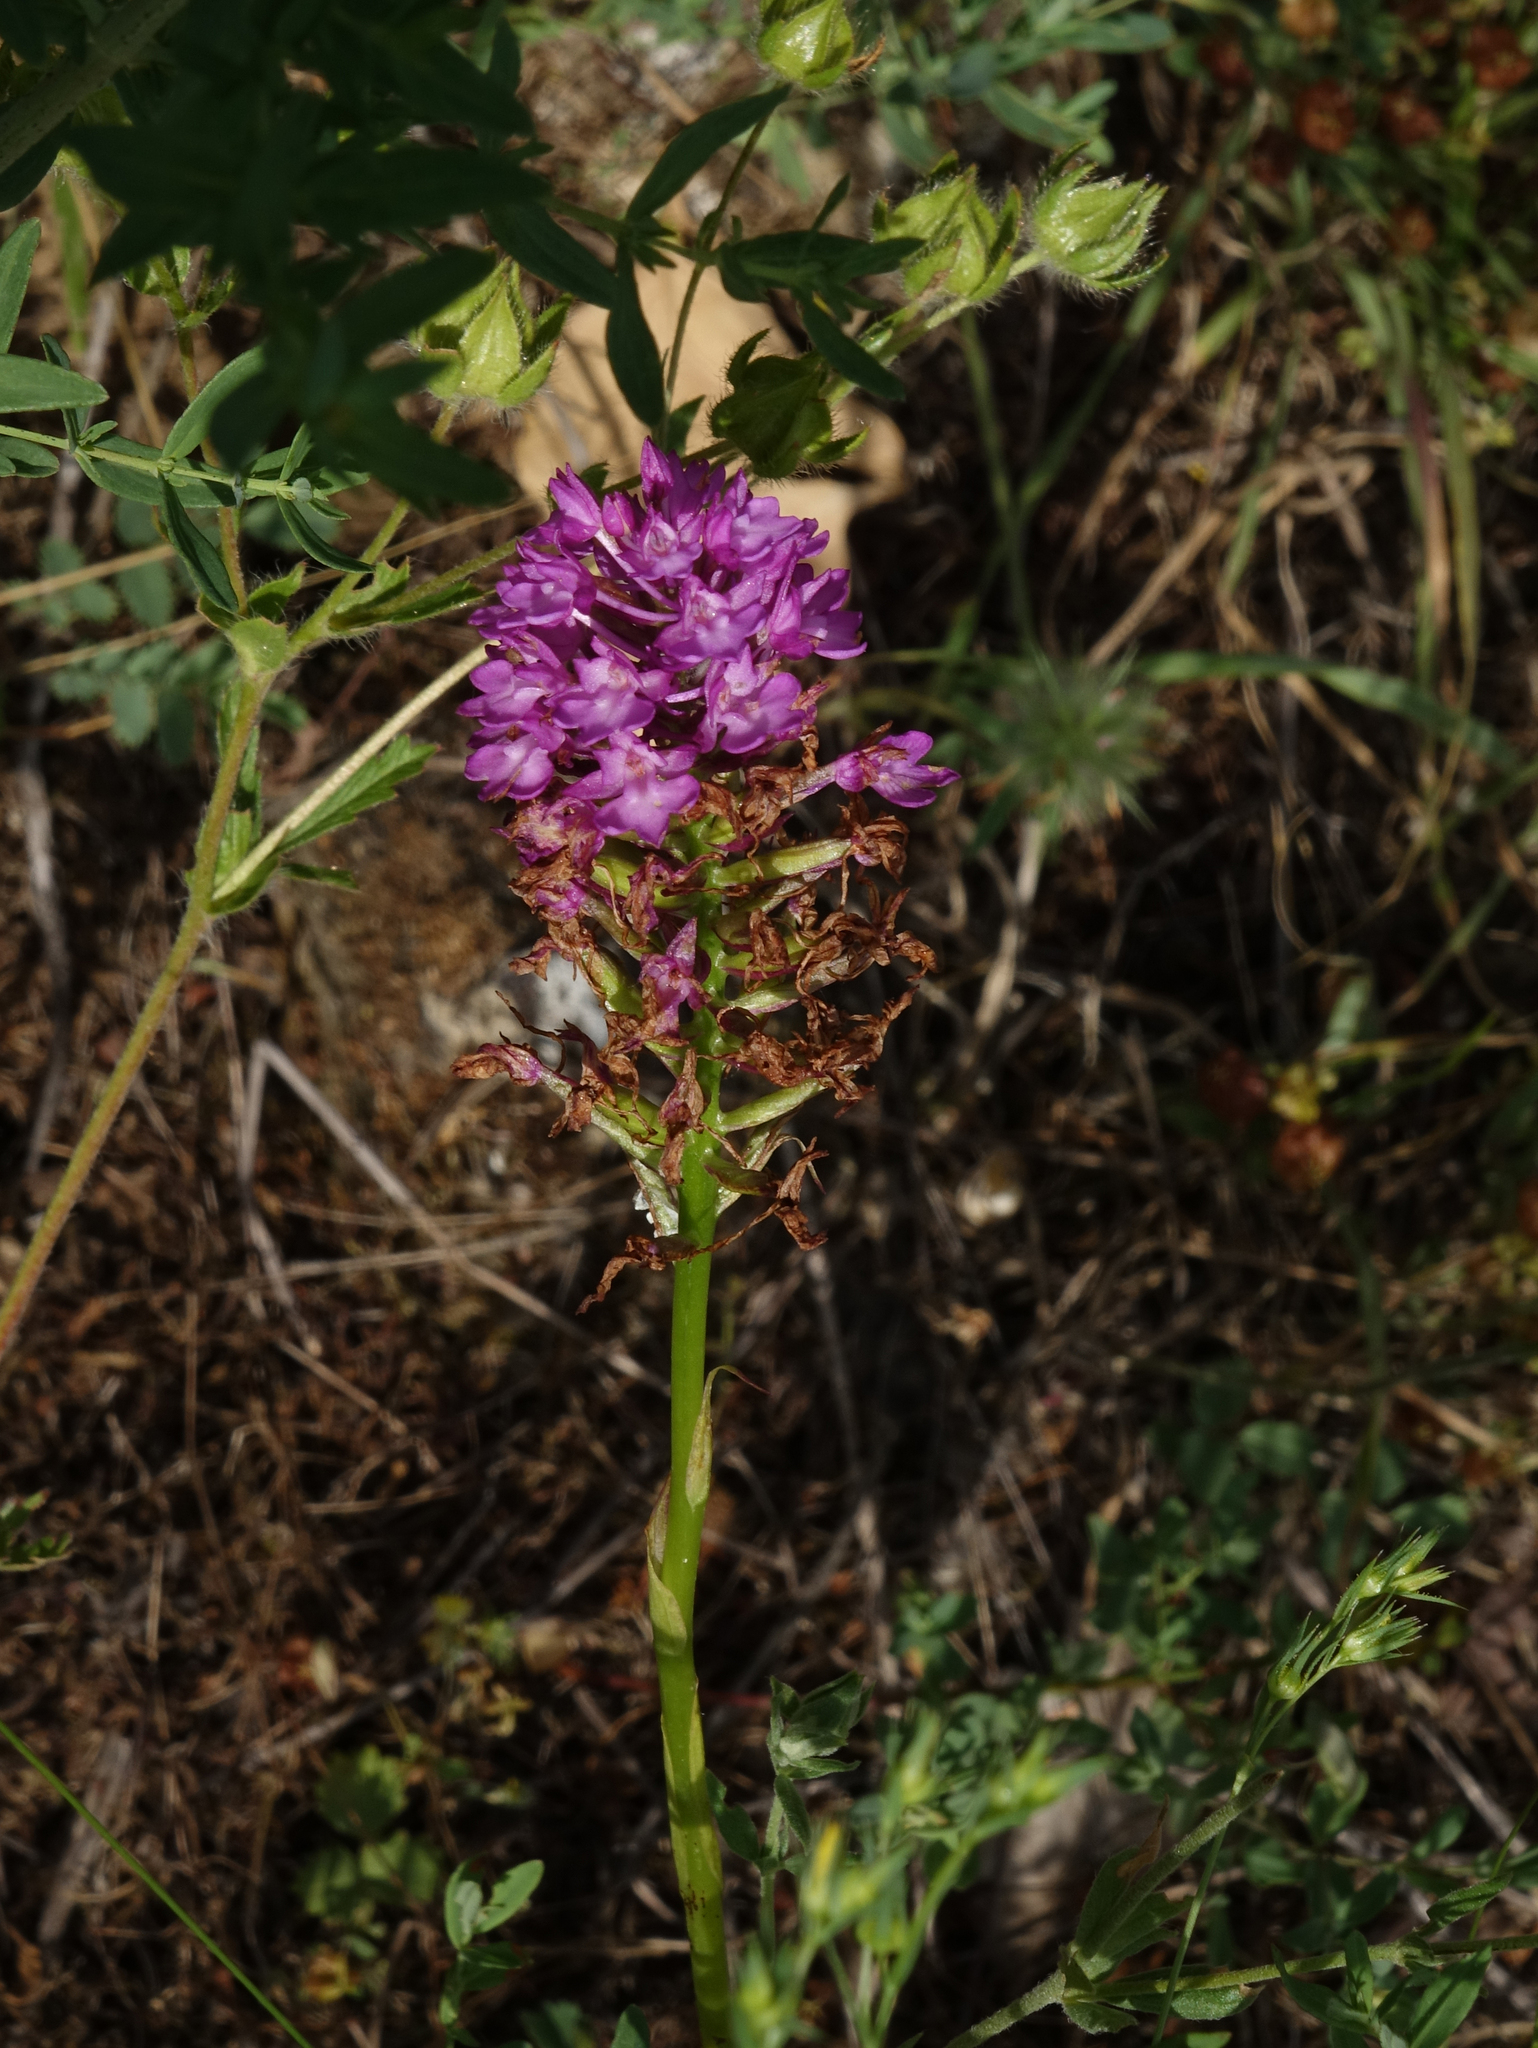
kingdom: Plantae
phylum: Tracheophyta
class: Liliopsida
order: Asparagales
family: Orchidaceae
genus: Anacamptis
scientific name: Anacamptis pyramidalis
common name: Pyramidal orchid
